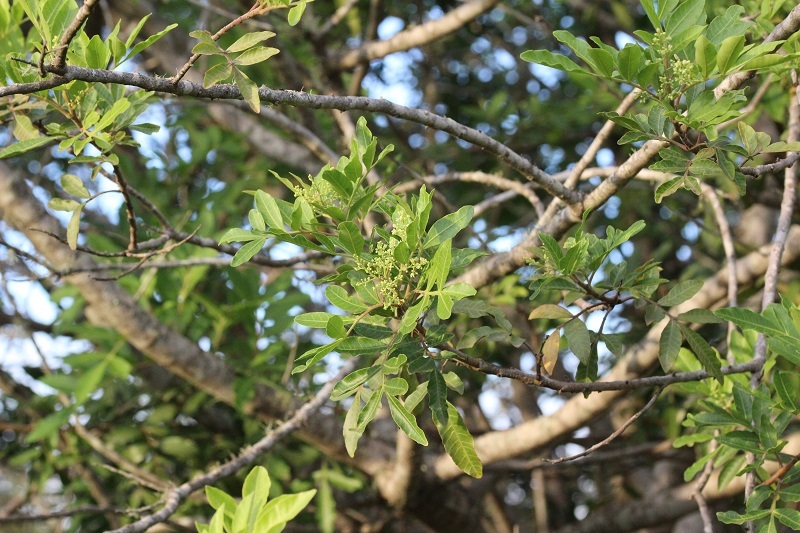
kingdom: Plantae
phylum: Tracheophyta
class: Magnoliopsida
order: Sapindales
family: Anacardiaceae
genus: Schinus
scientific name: Schinus terebinthifolia
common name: Brazilian peppertree
